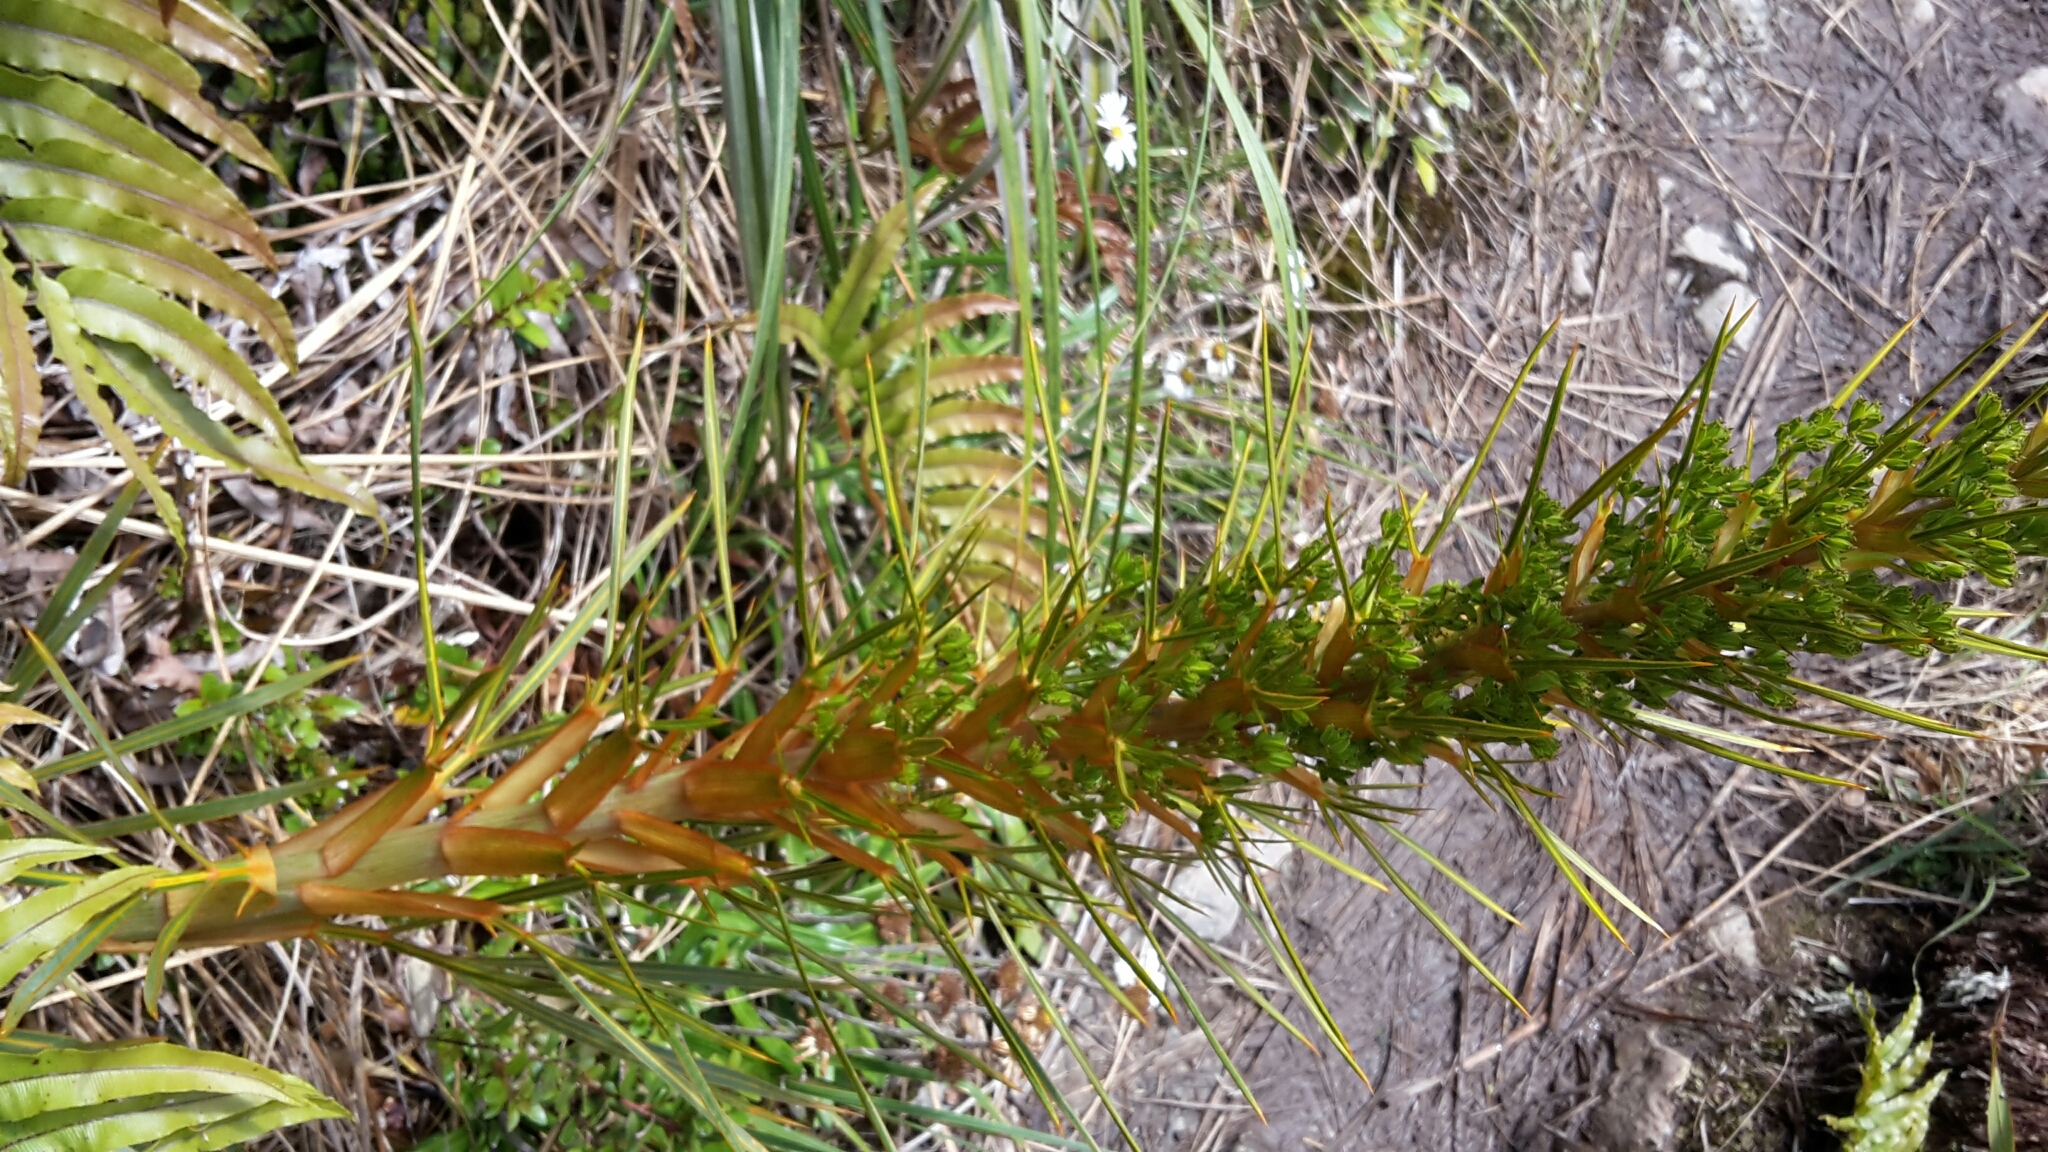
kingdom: Plantae
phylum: Tracheophyta
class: Magnoliopsida
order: Apiales
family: Apiaceae
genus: Aciphylla
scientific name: Aciphylla colensoi
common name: Colenso's spaniard
